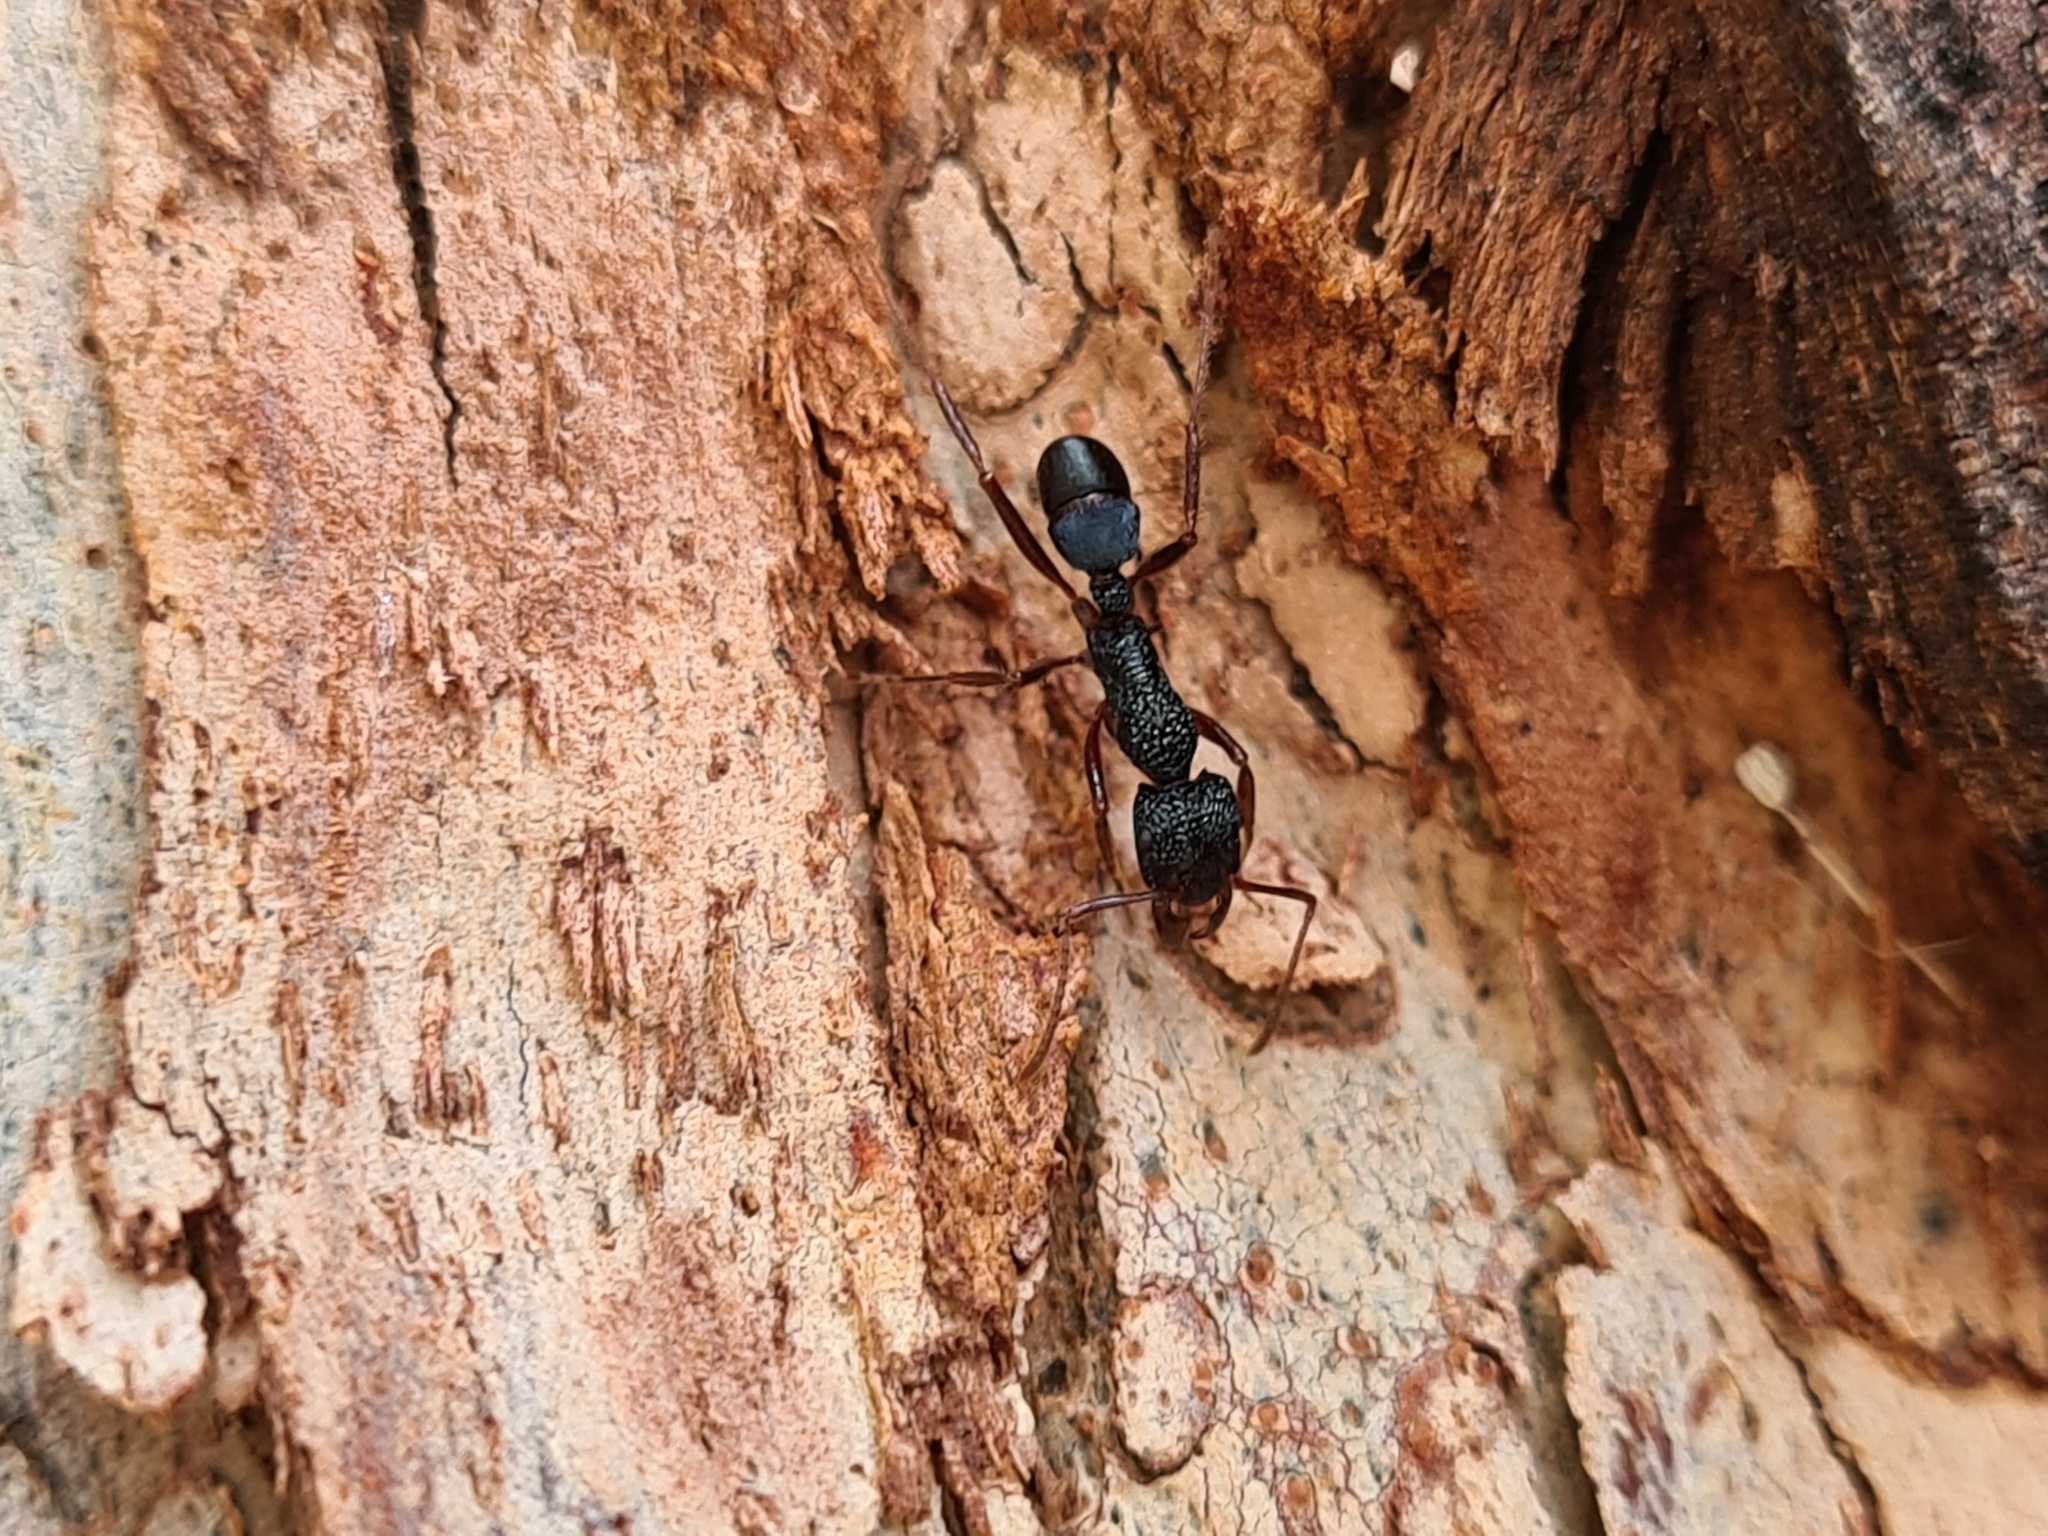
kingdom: Animalia
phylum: Arthropoda
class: Insecta
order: Hymenoptera
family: Formicidae
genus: Rhytidoponera
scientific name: Rhytidoponera aspera
